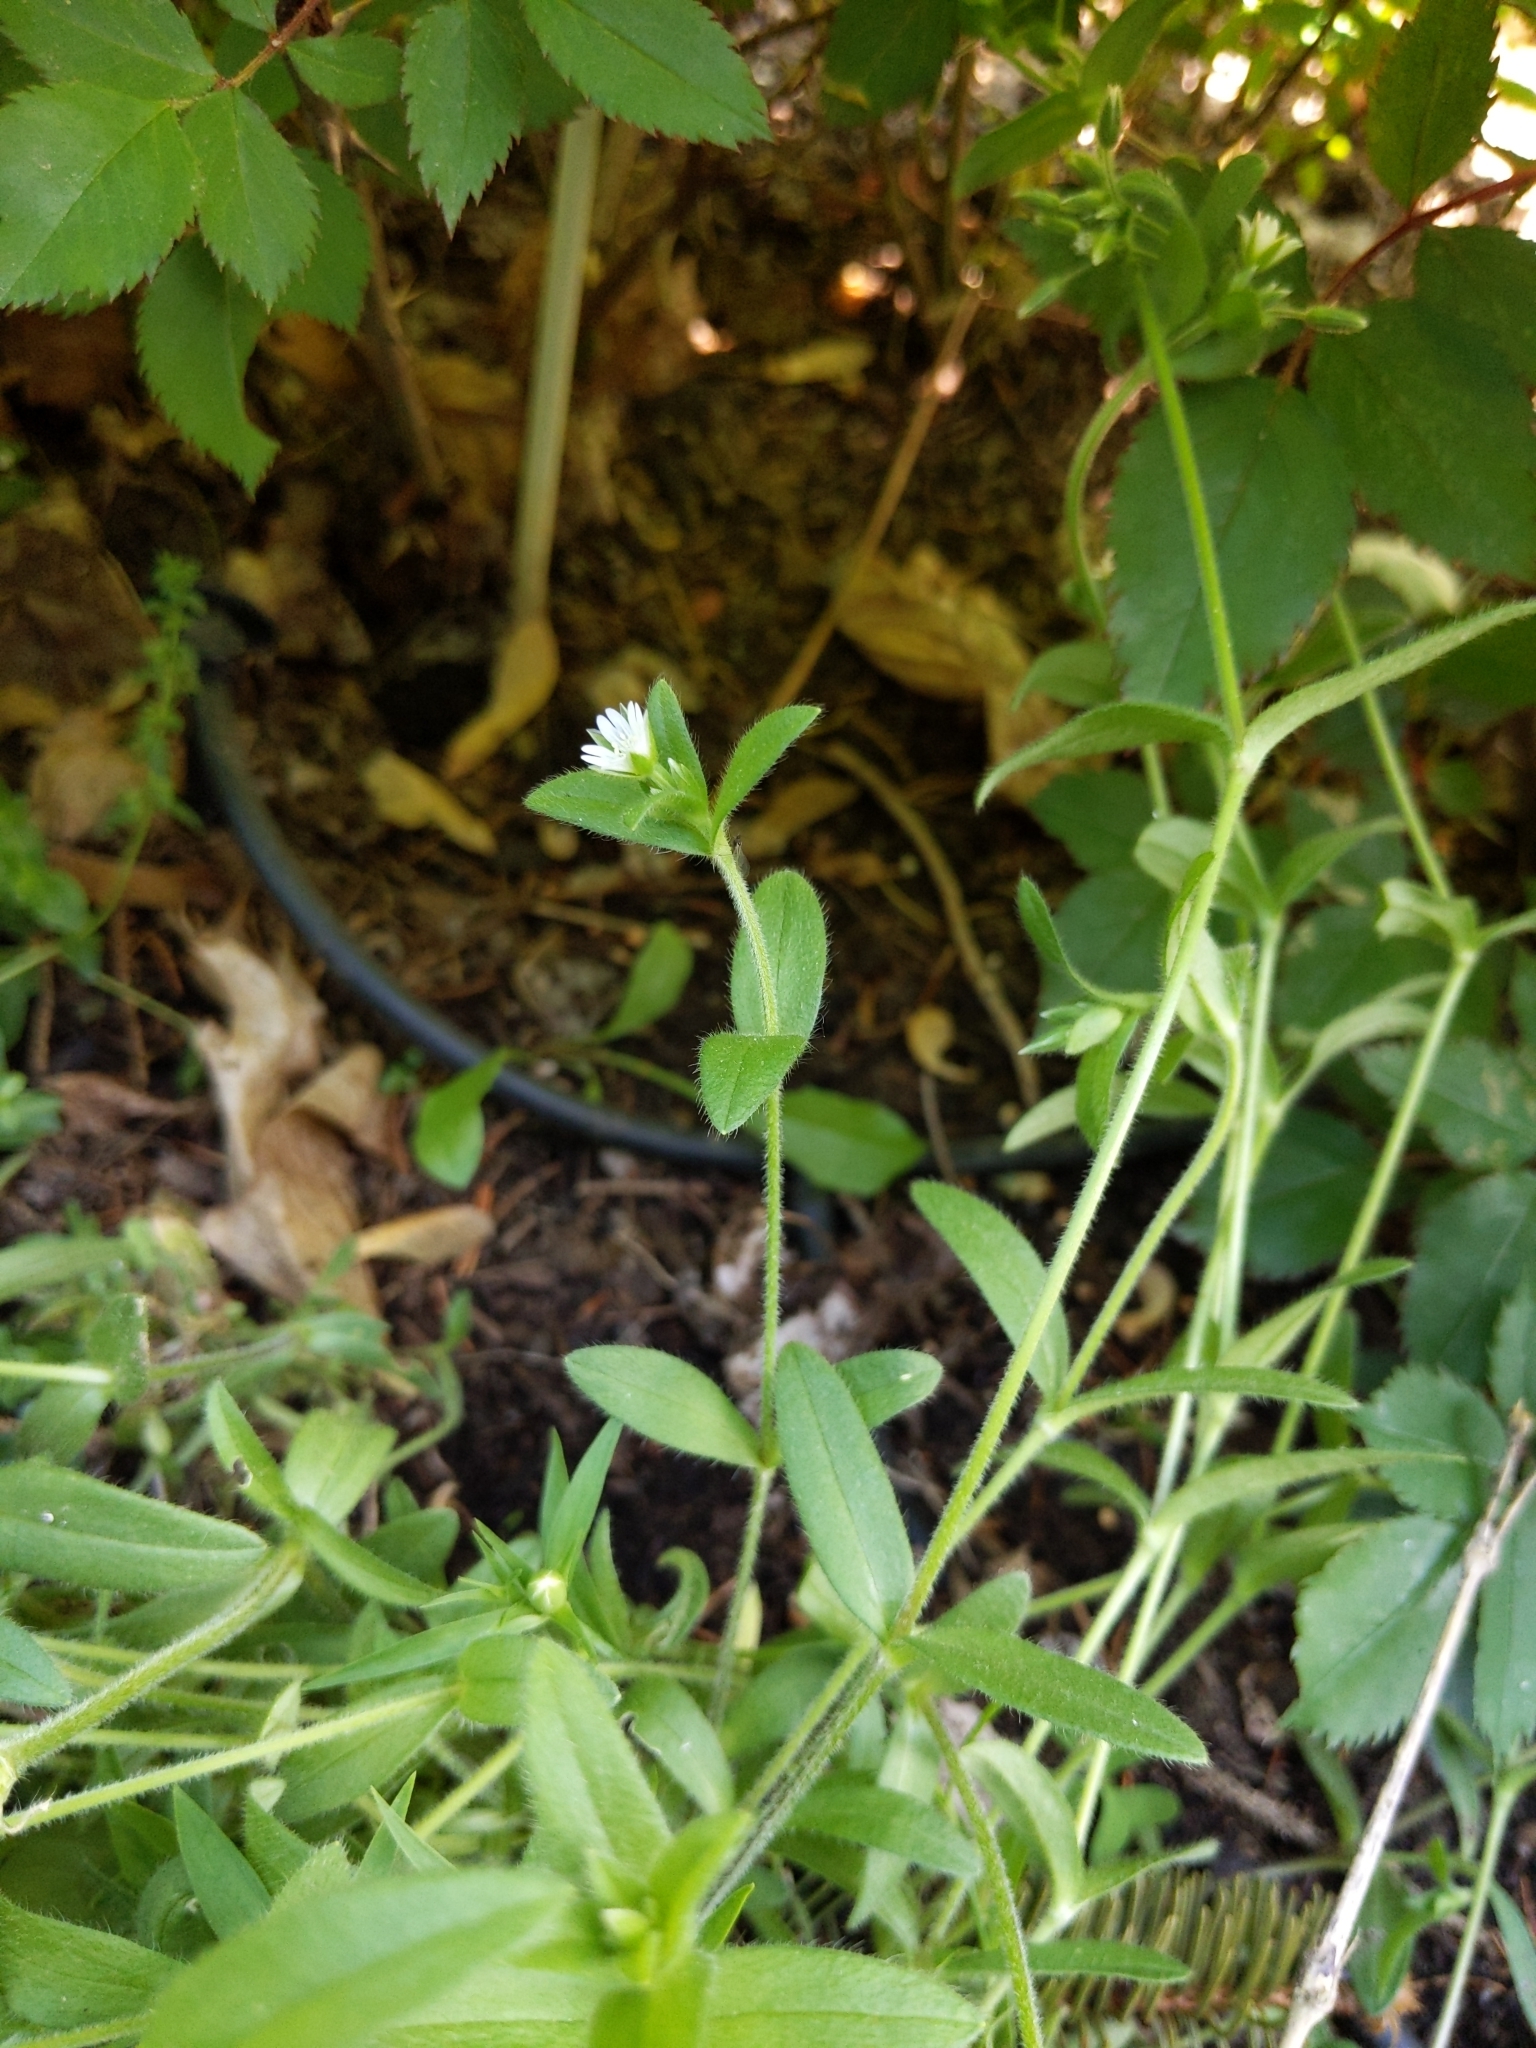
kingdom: Plantae
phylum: Tracheophyta
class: Magnoliopsida
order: Caryophyllales
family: Caryophyllaceae
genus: Cerastium
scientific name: Cerastium fontanum
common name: Common mouse-ear
